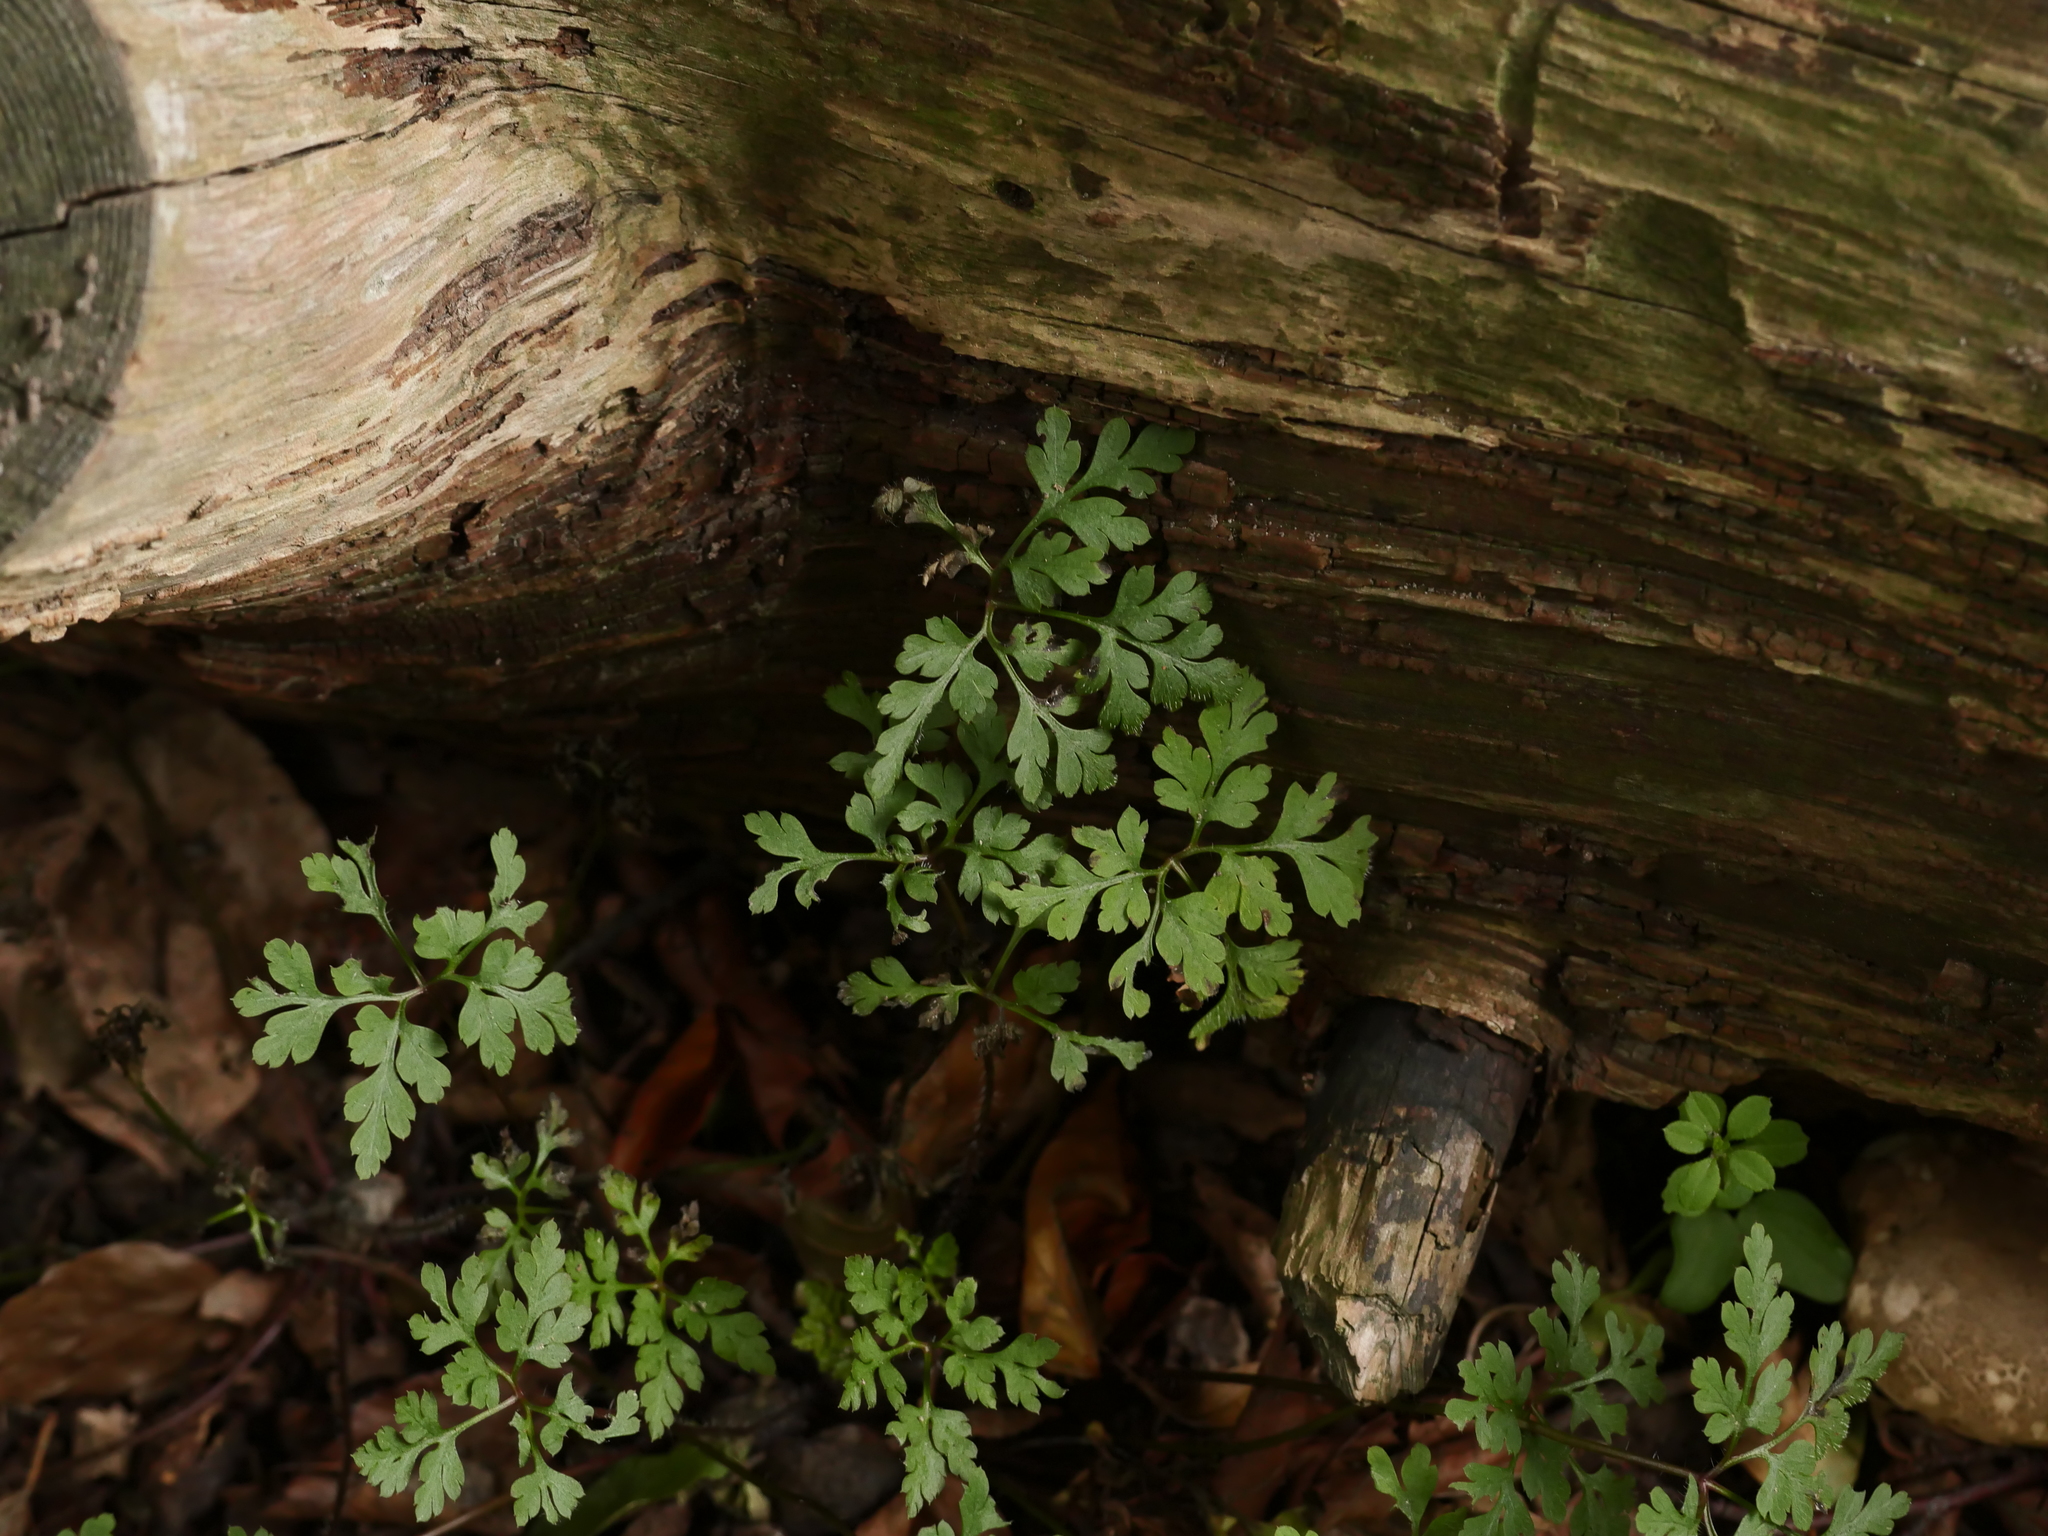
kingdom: Plantae
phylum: Tracheophyta
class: Magnoliopsida
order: Geraniales
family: Geraniaceae
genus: Geranium
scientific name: Geranium robertianum
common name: Herb-robert
